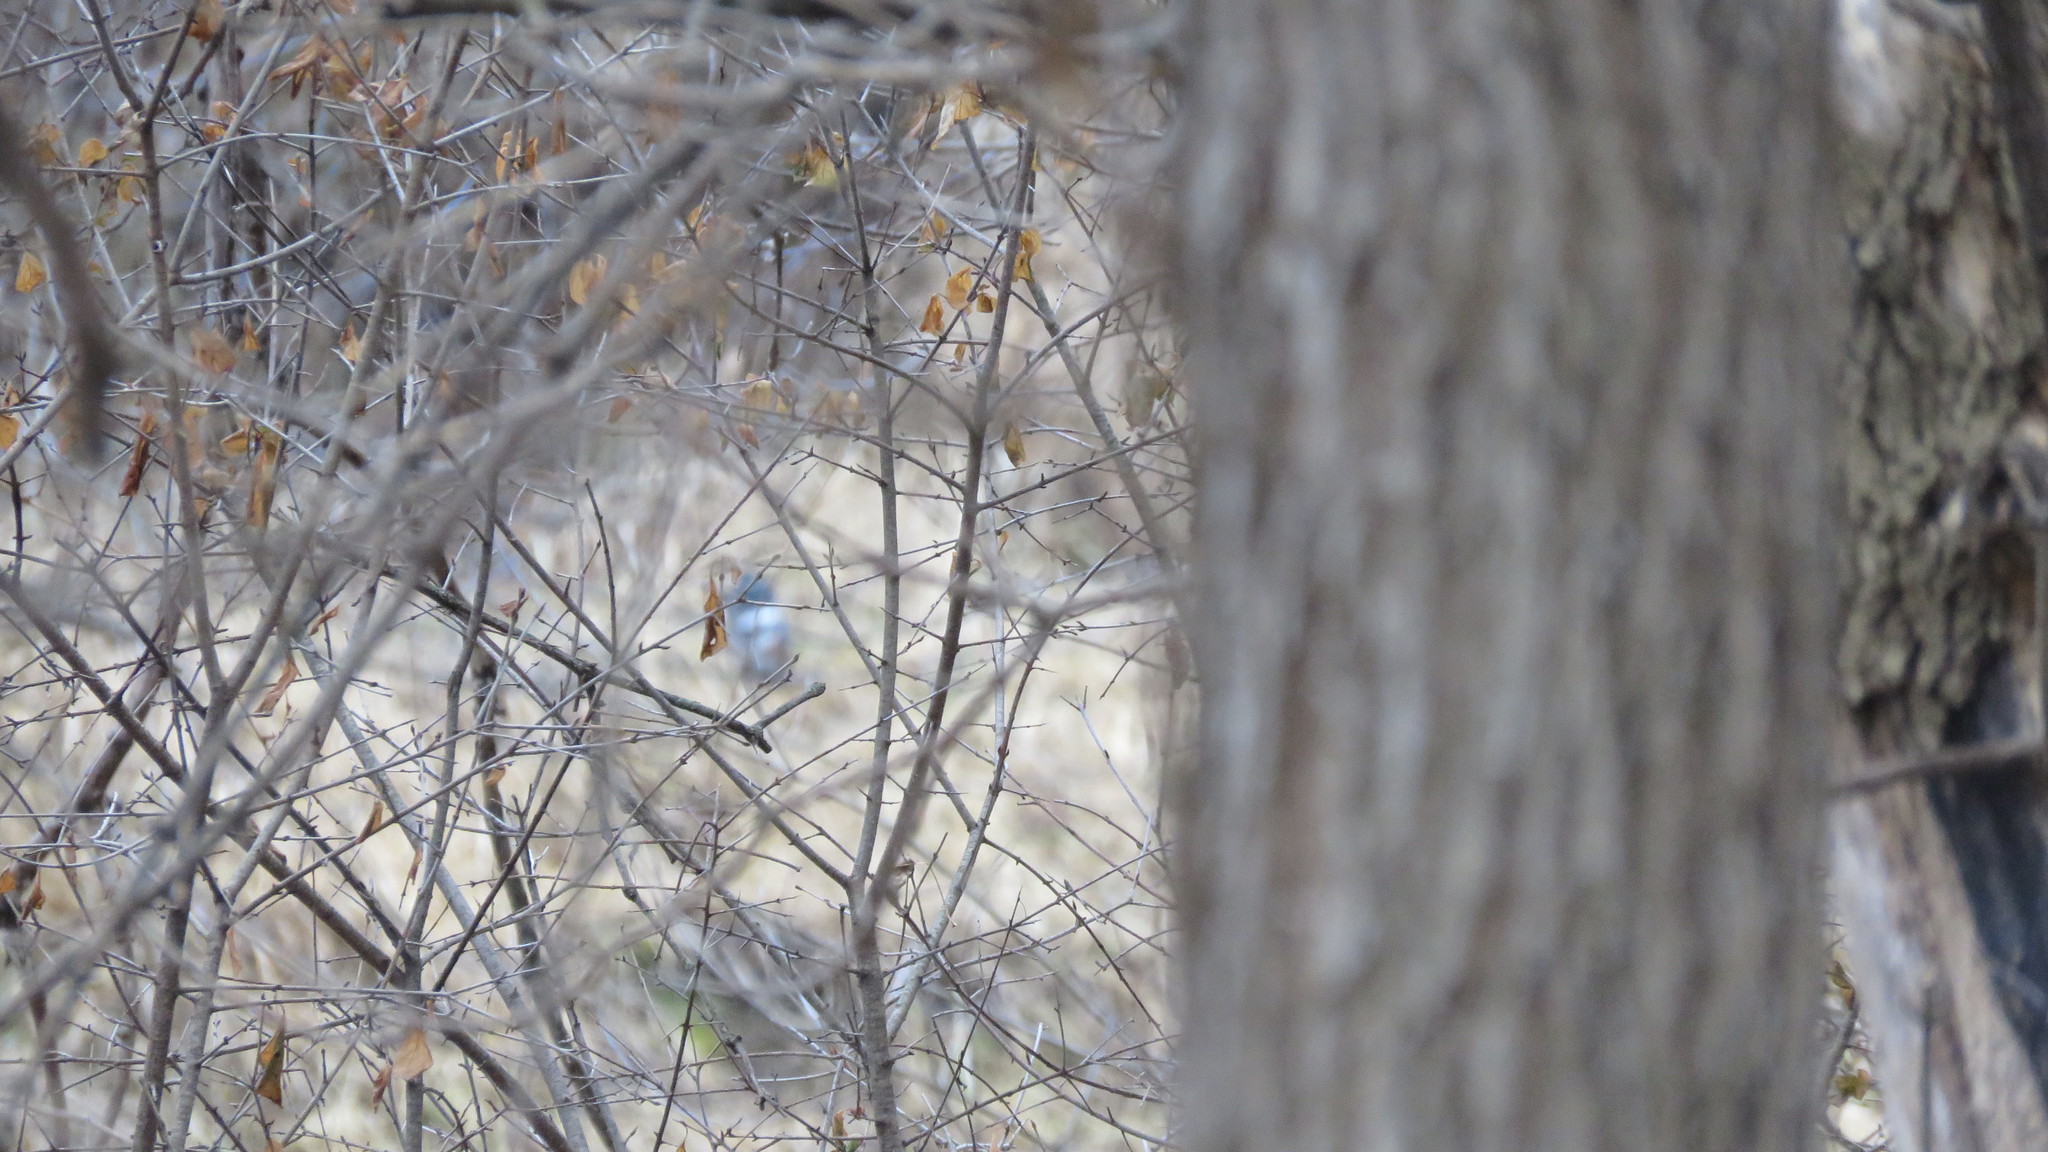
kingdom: Animalia
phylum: Chordata
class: Aves
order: Coraciiformes
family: Alcedinidae
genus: Megaceryle
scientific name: Megaceryle alcyon
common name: Belted kingfisher
